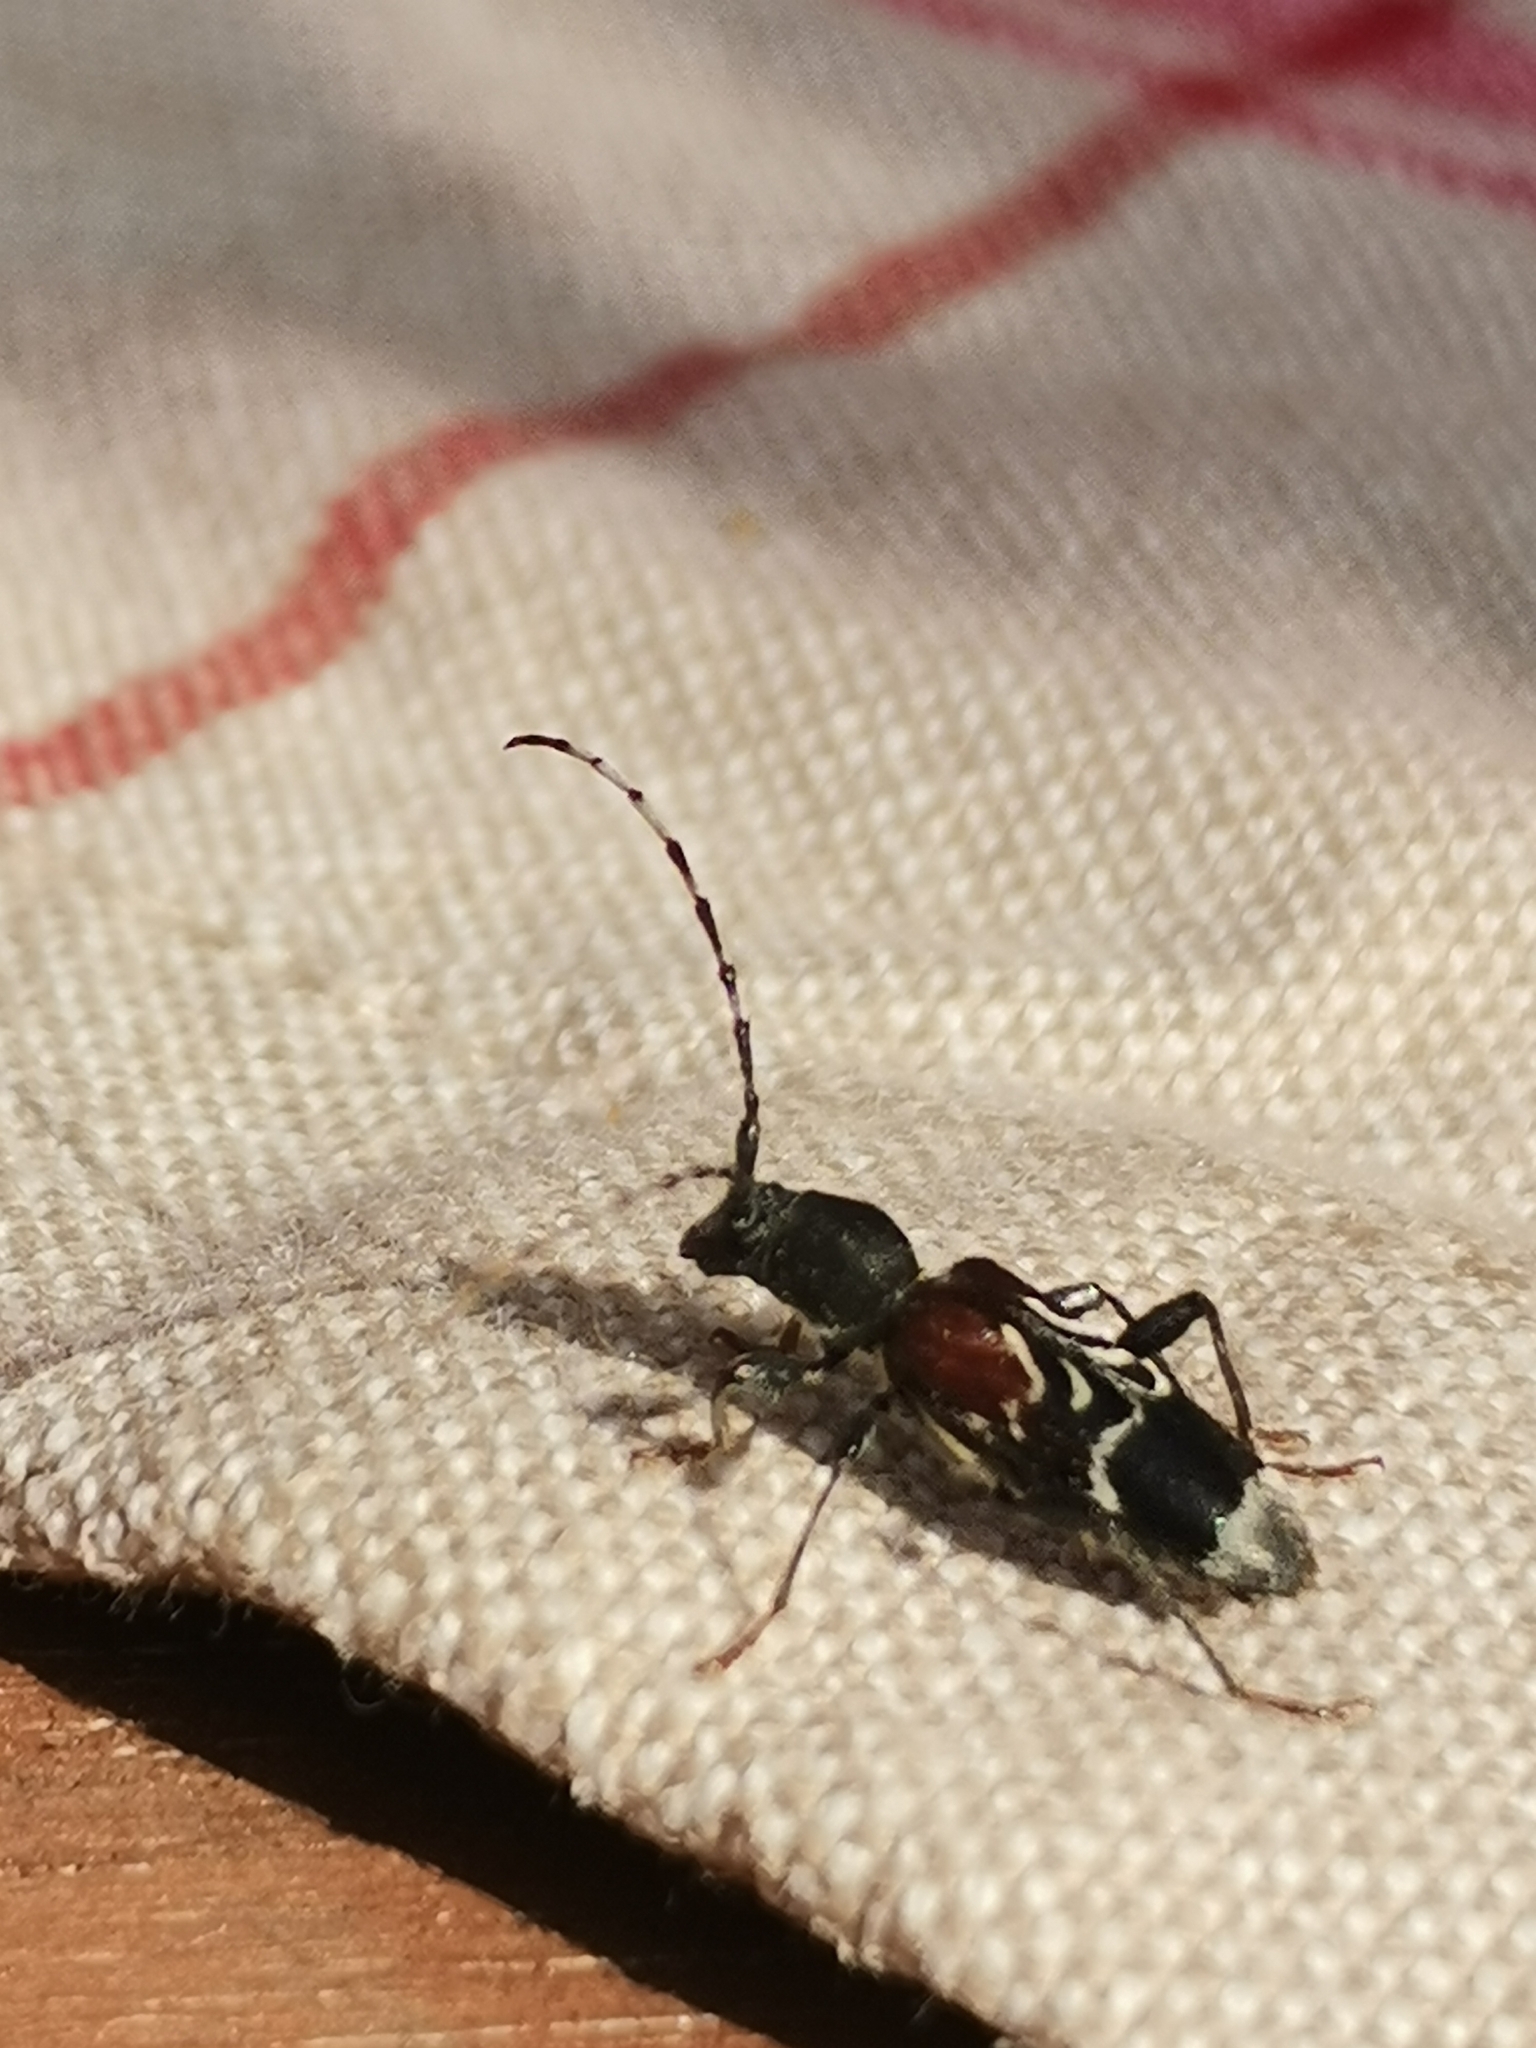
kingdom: Animalia
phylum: Arthropoda
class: Insecta
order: Coleoptera
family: Cerambycidae
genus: Anaglyptus
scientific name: Anaglyptus mysticus
